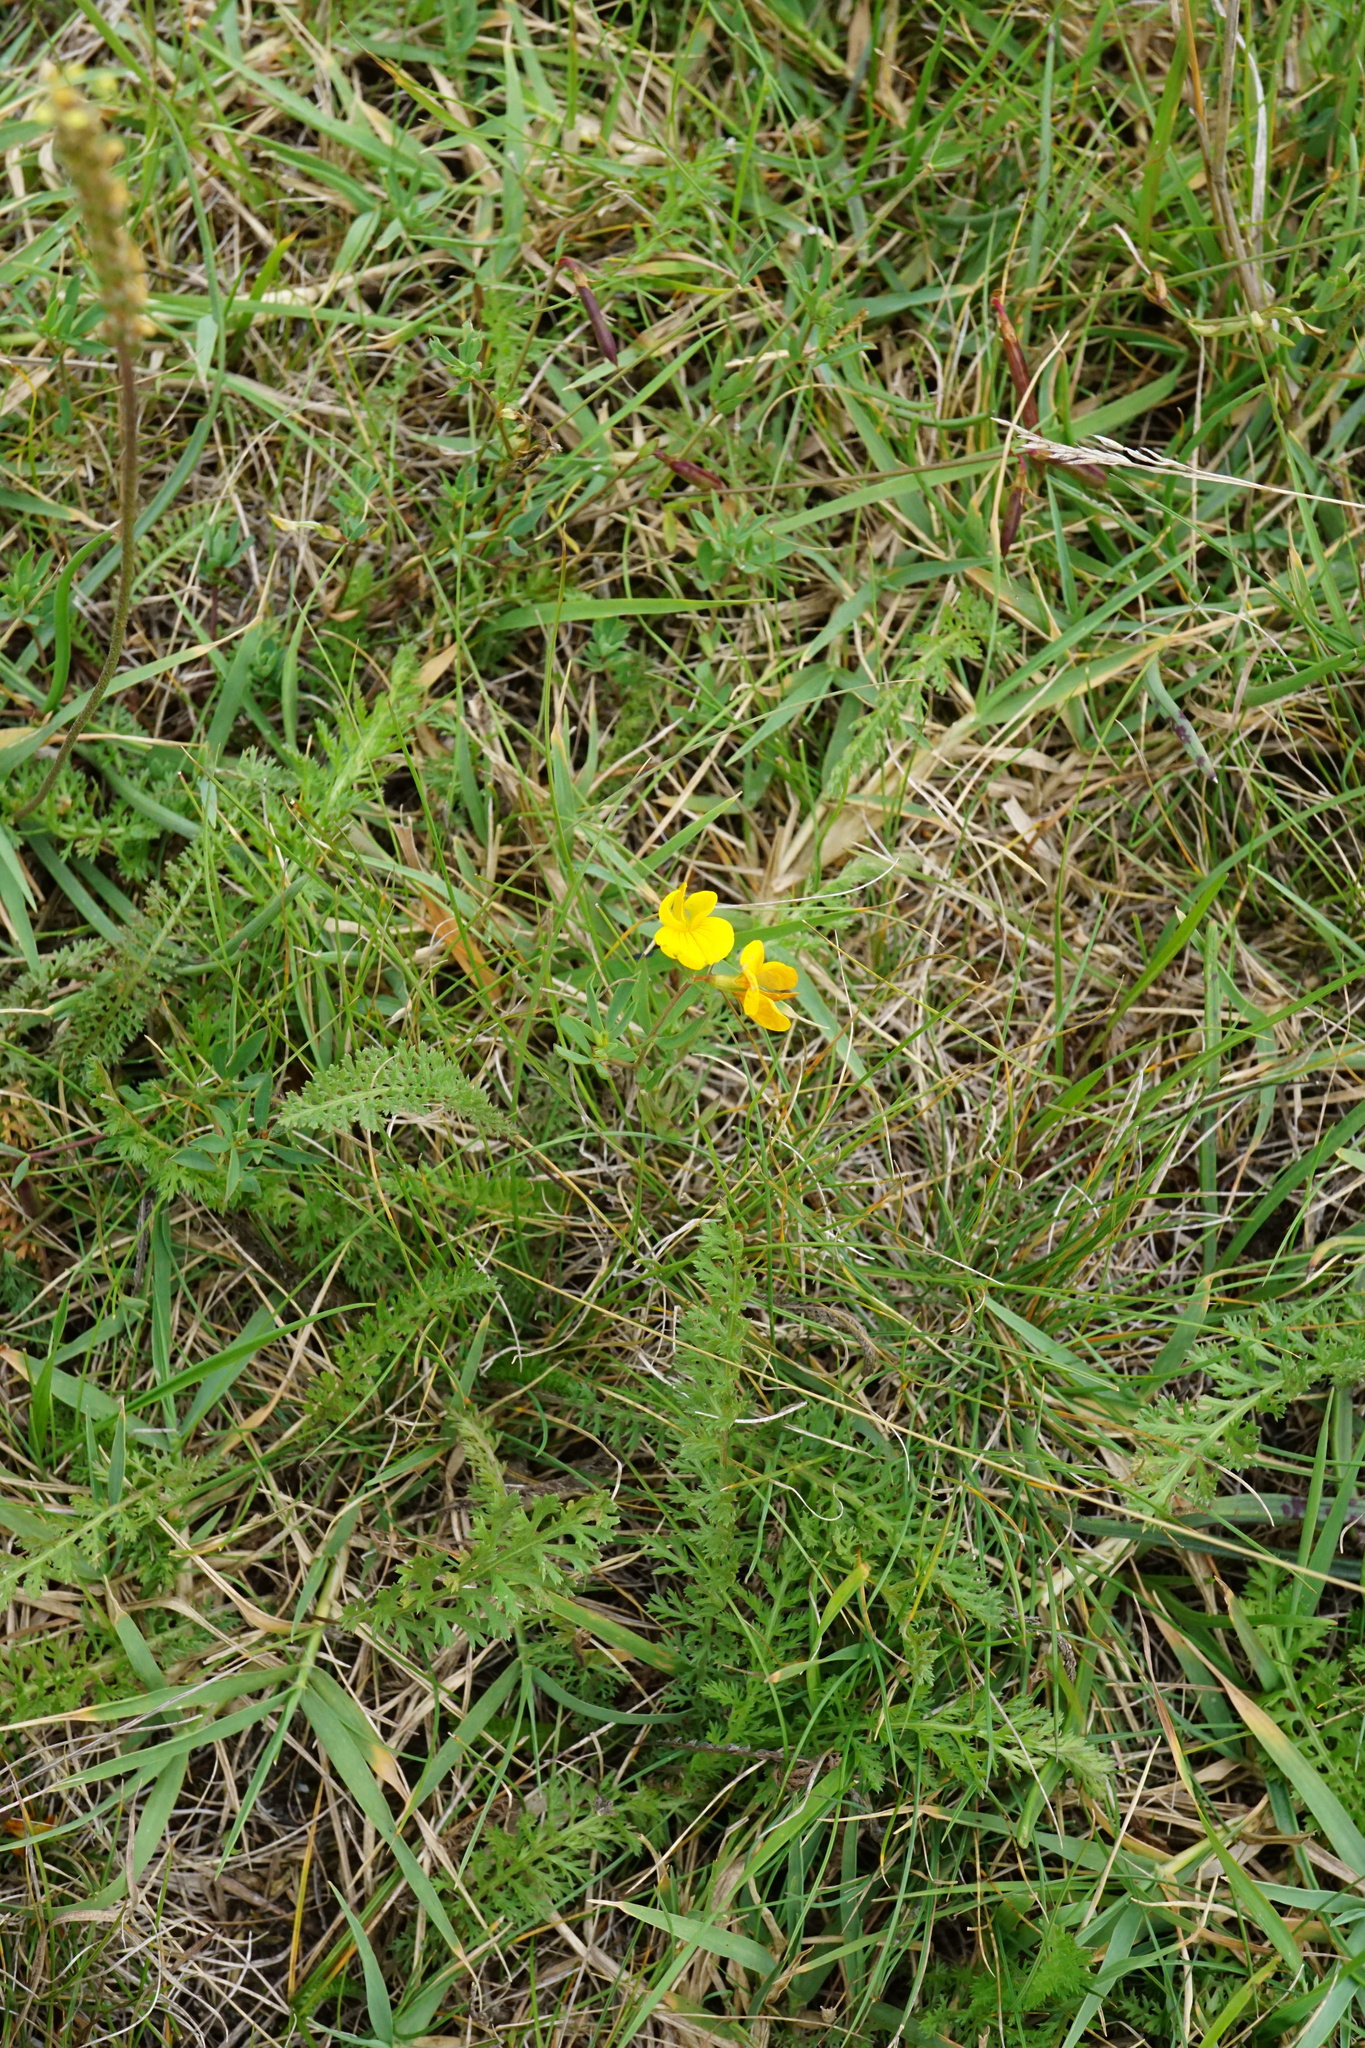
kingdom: Plantae
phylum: Tracheophyta
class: Magnoliopsida
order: Fabales
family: Fabaceae
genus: Lotus
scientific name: Lotus tenuis
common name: Narrow-leaved bird's-foot-trefoil
